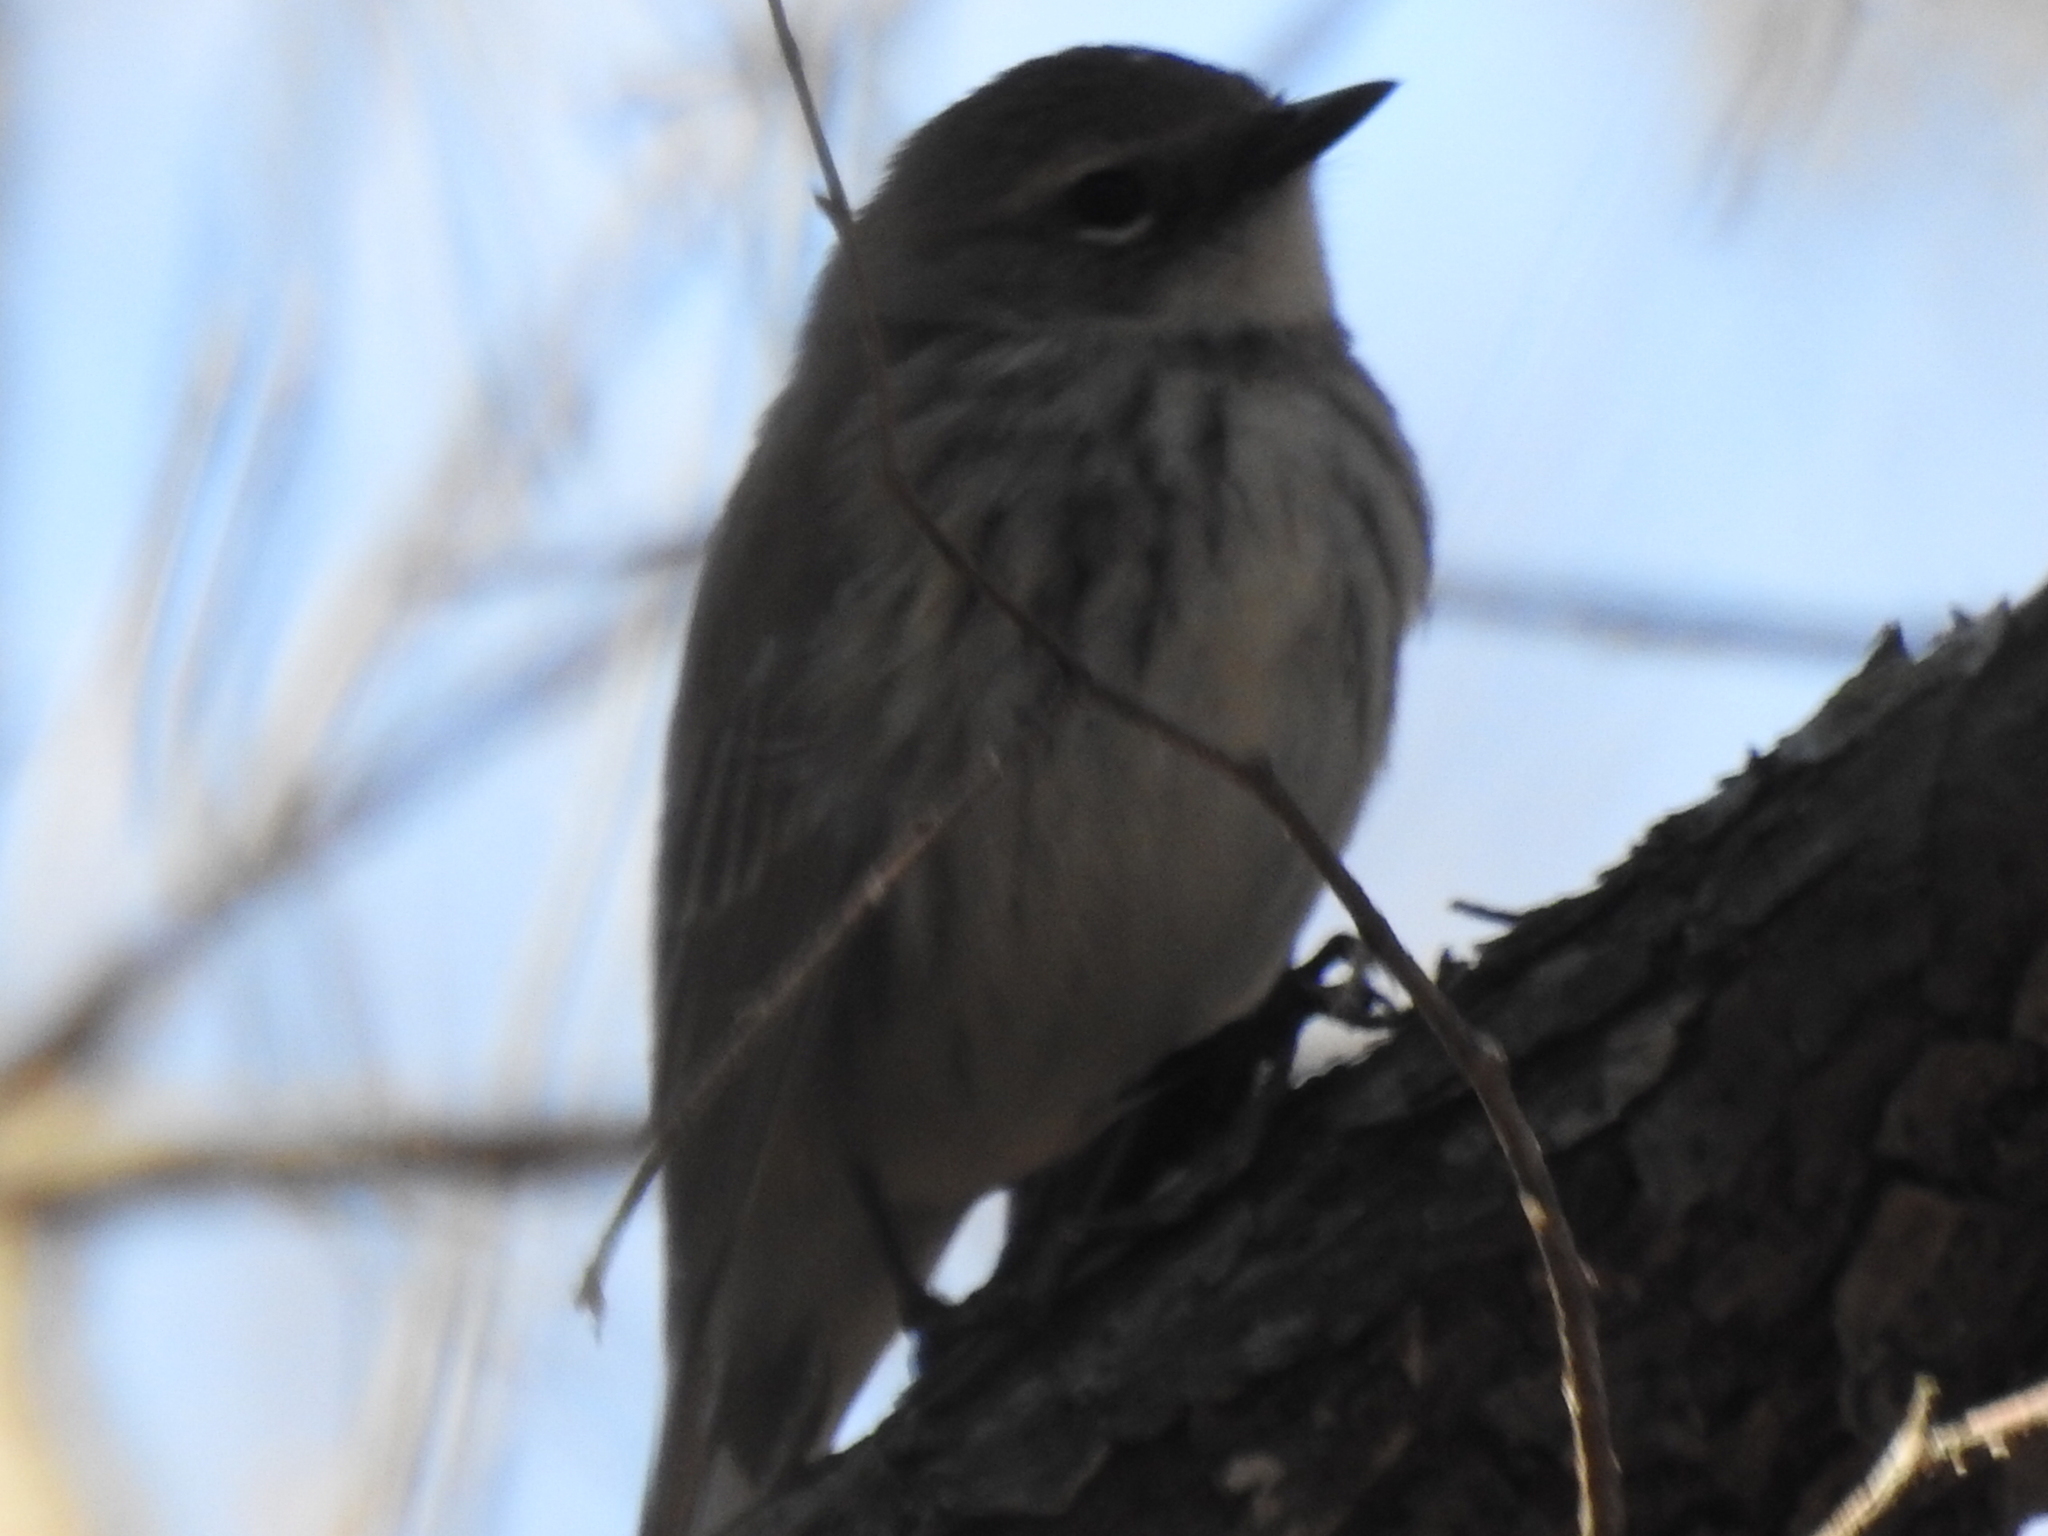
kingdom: Animalia
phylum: Chordata
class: Aves
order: Passeriformes
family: Parulidae
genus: Setophaga
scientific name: Setophaga coronata
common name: Myrtle warbler
